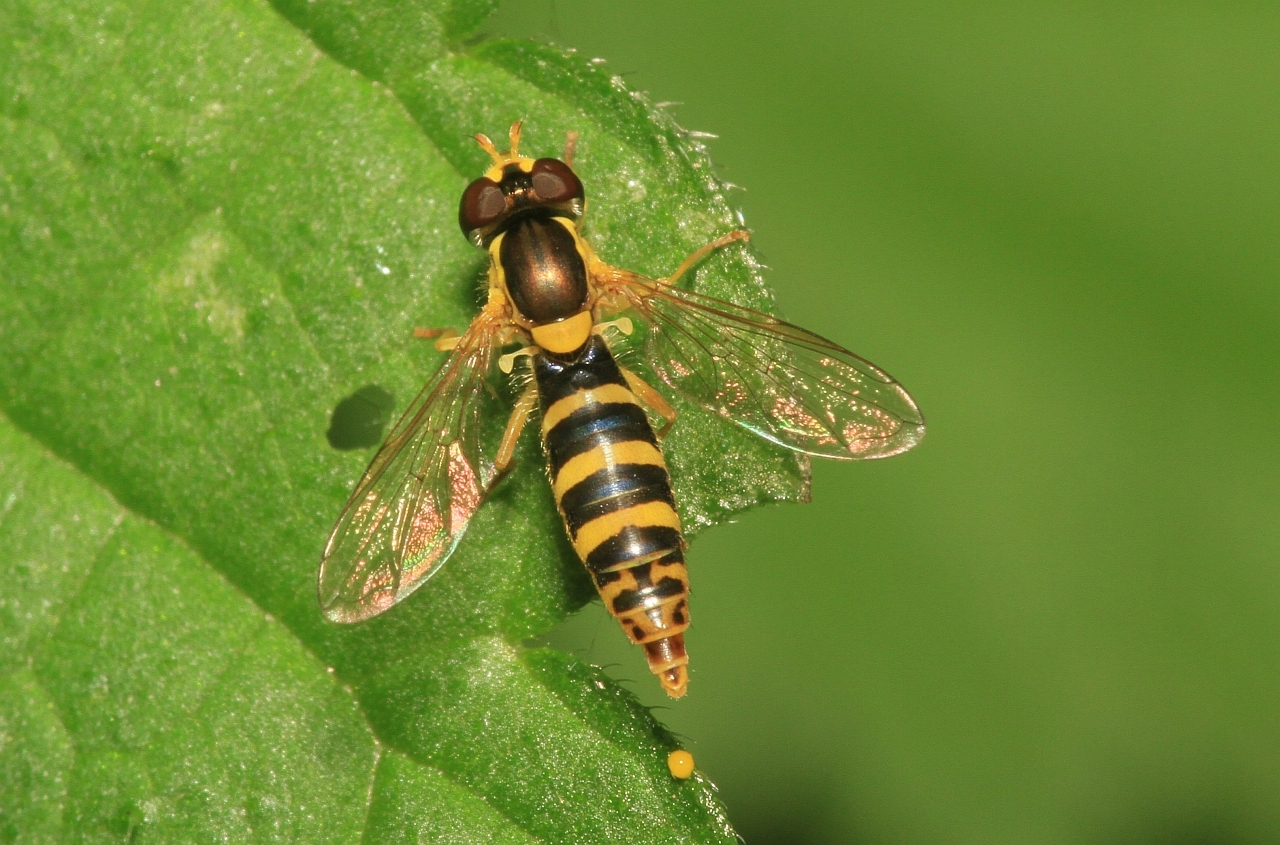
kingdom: Animalia
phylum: Arthropoda
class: Insecta
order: Diptera
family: Syrphidae
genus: Sphaerophoria
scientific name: Sphaerophoria
